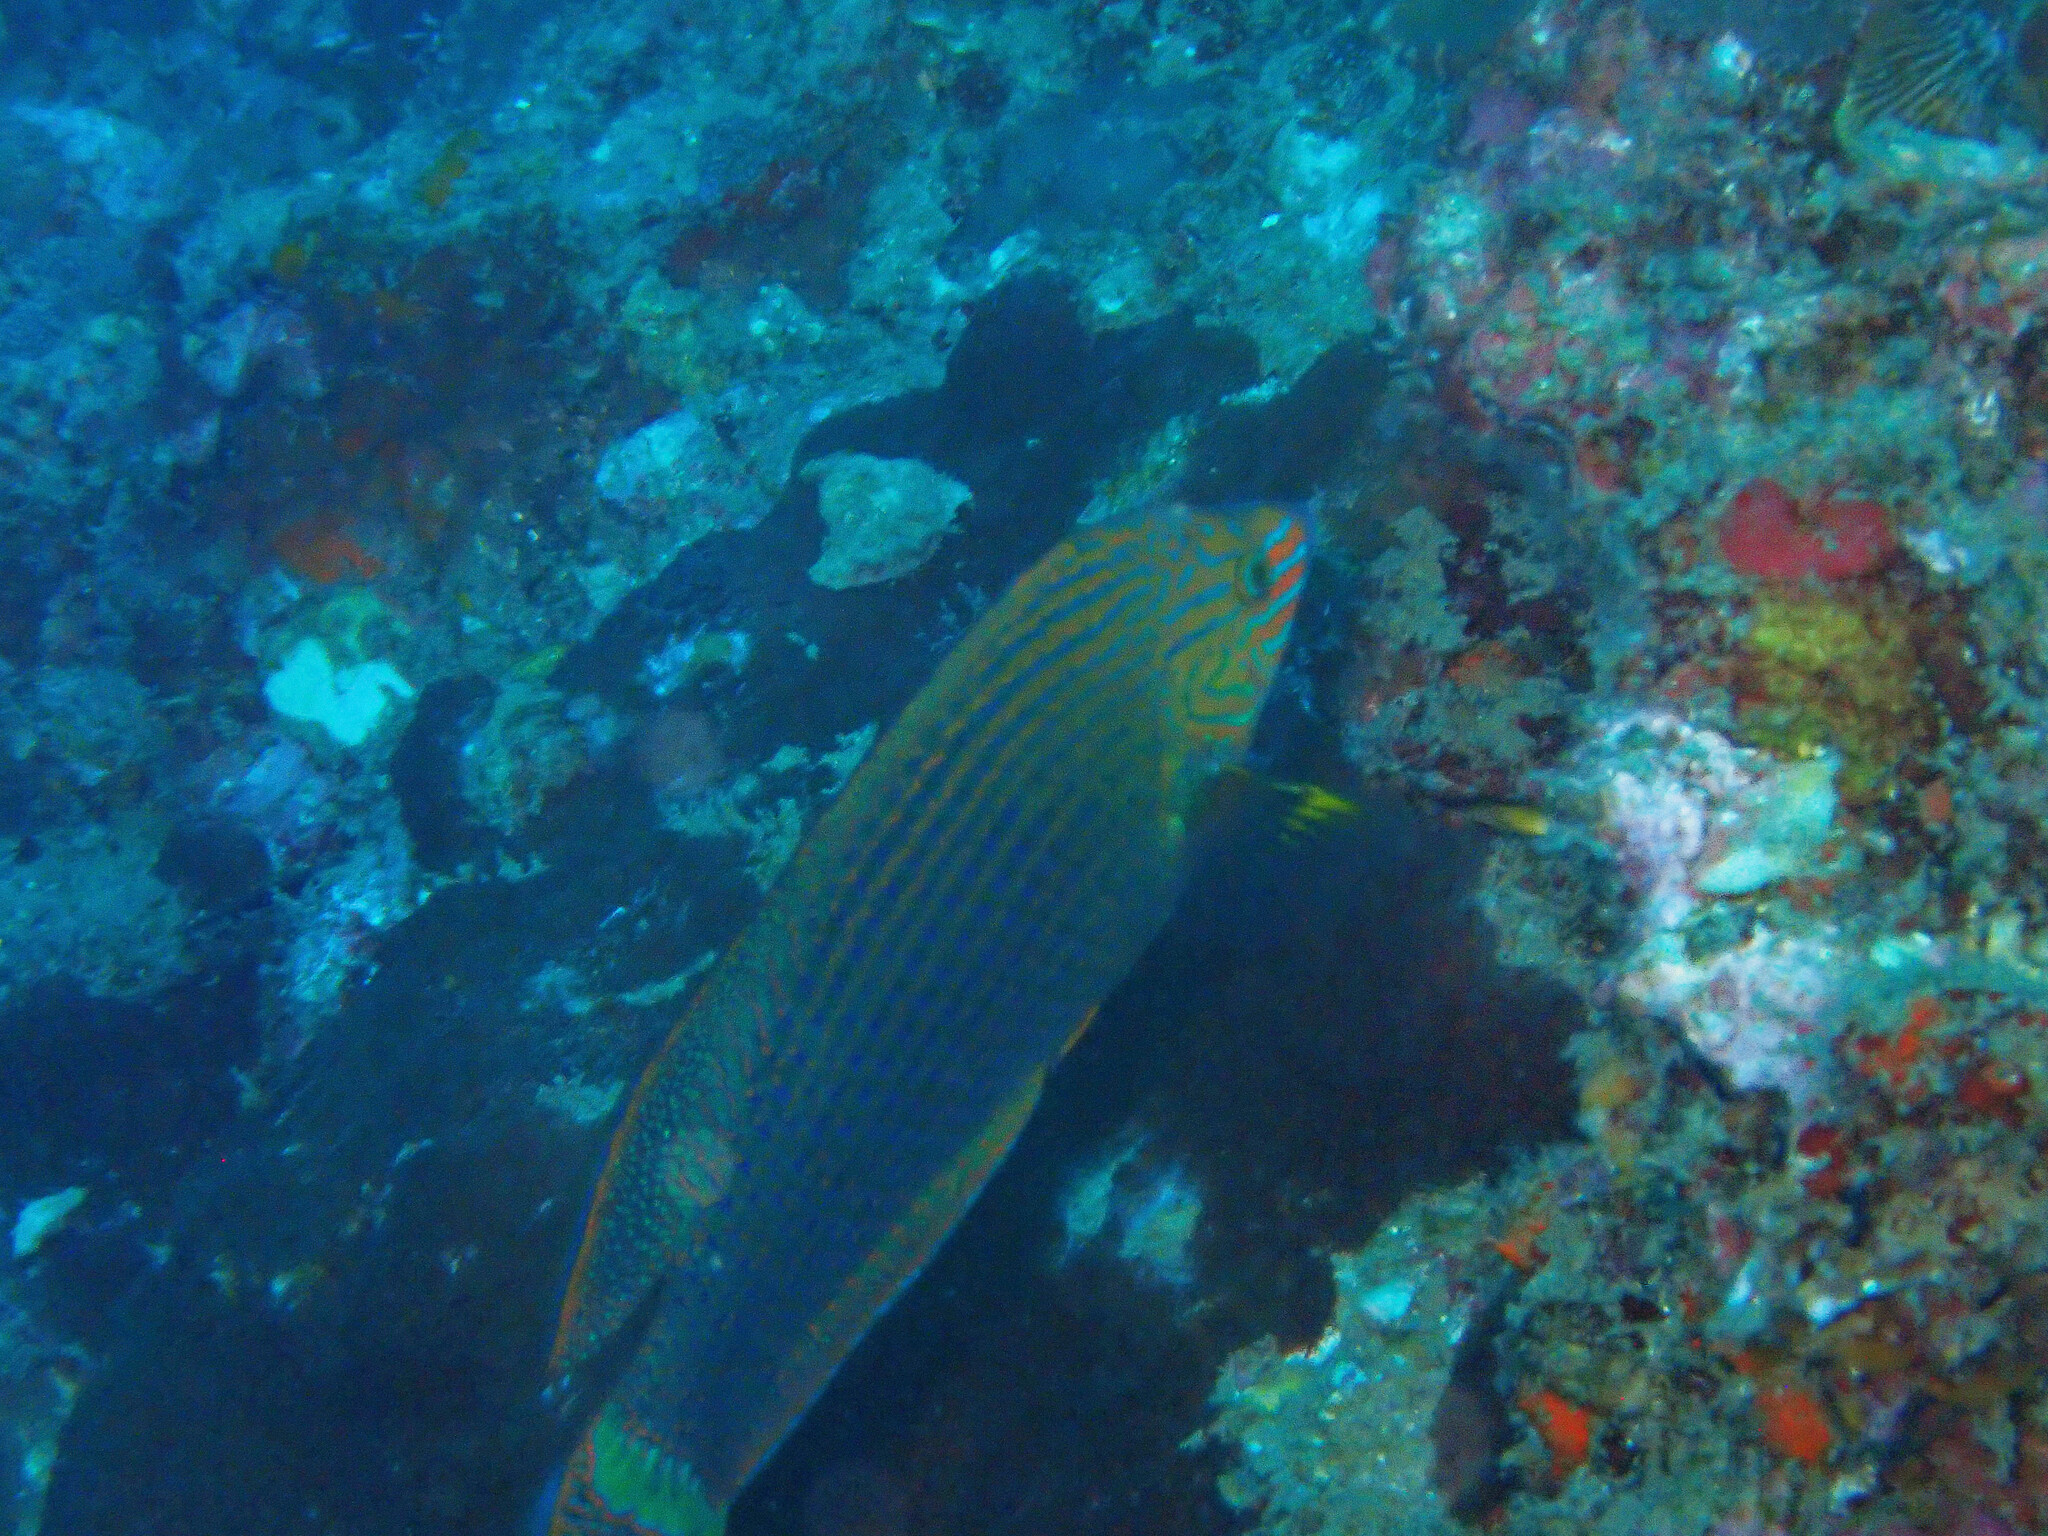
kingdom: Animalia
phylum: Chordata
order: Perciformes
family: Labridae
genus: Halichoeres
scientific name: Halichoeres
